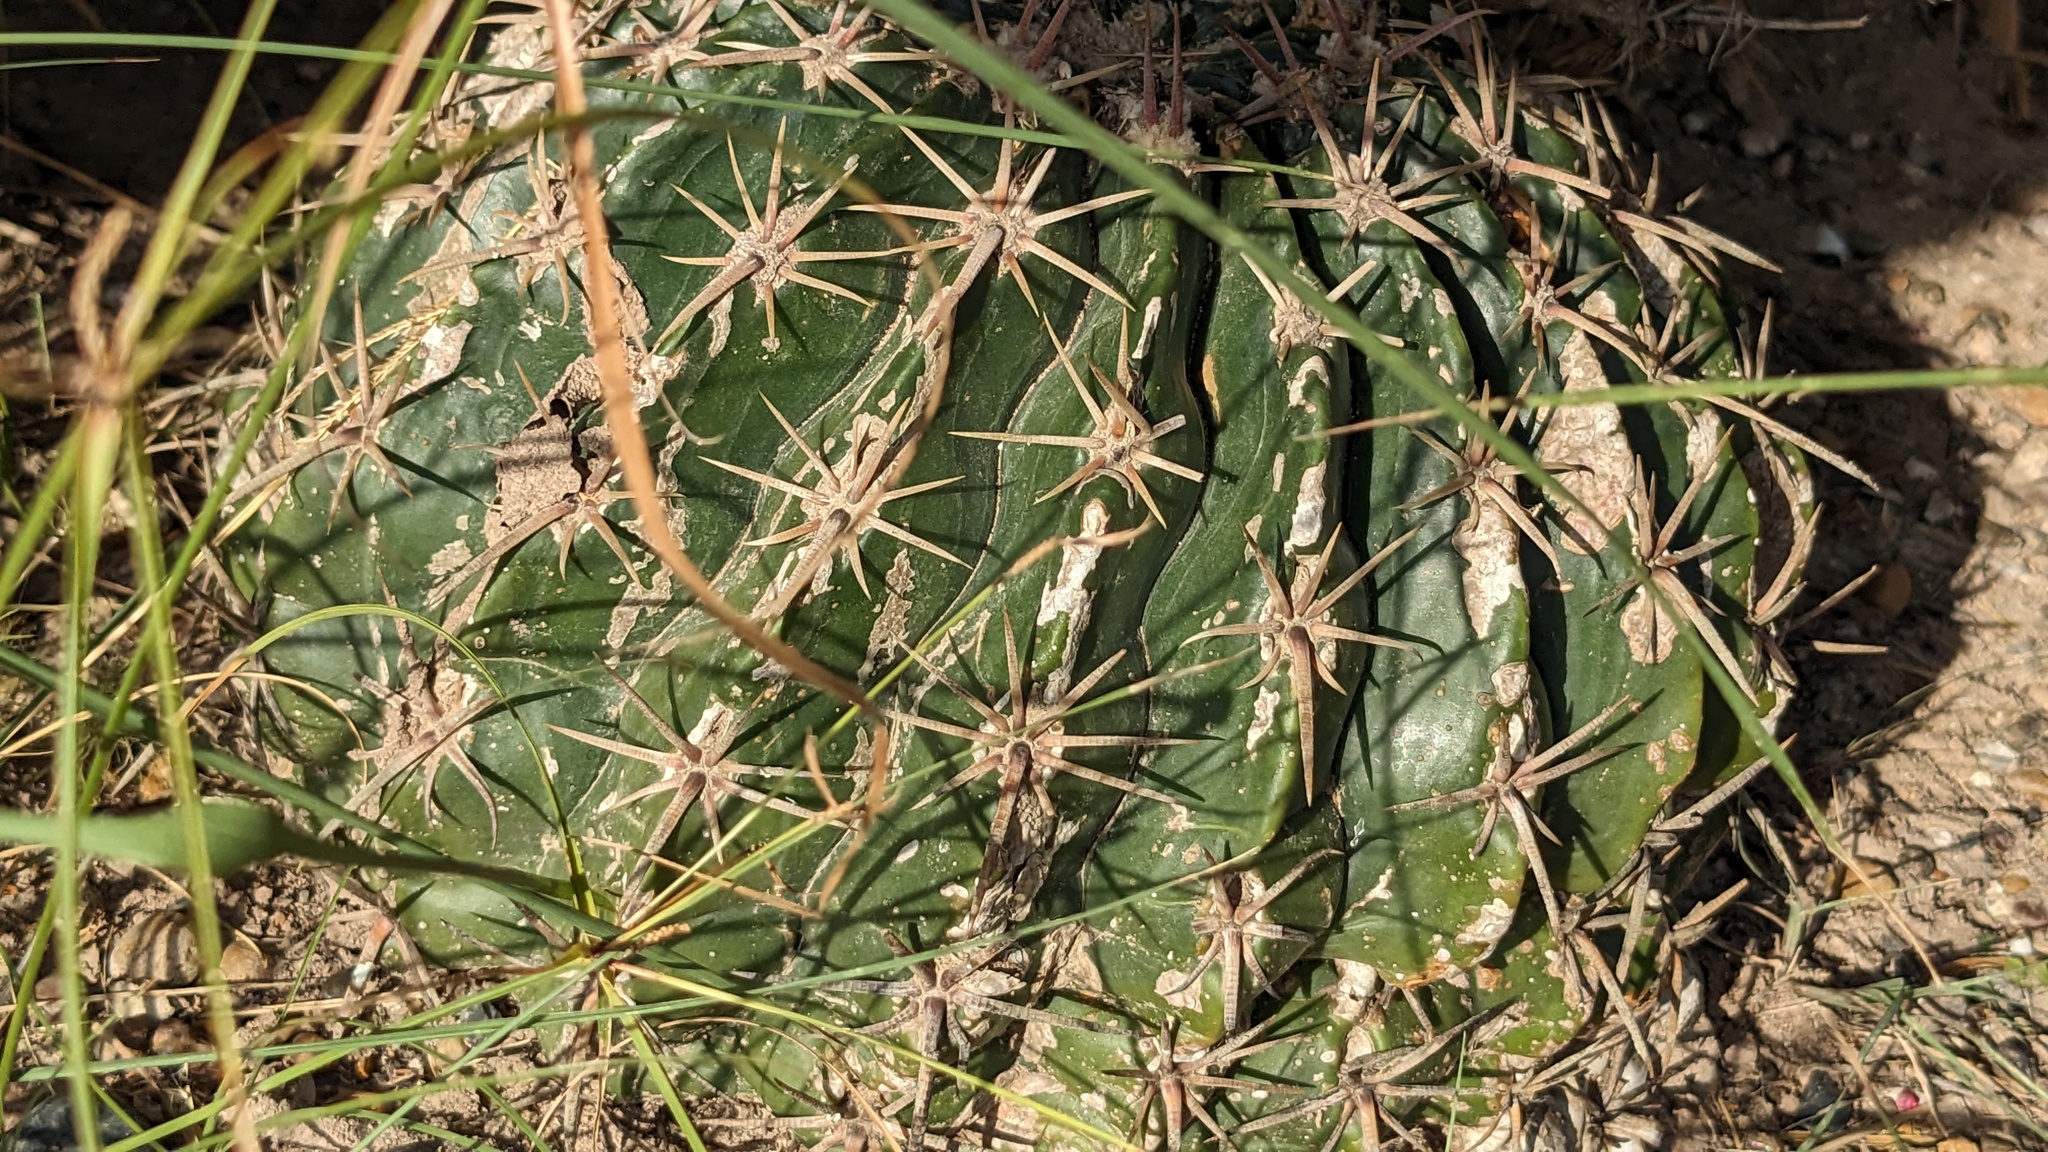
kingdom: Plantae
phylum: Tracheophyta
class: Magnoliopsida
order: Caryophyllales
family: Cactaceae
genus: Echinocactus
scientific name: Echinocactus texensis
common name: Devil's pincushion
